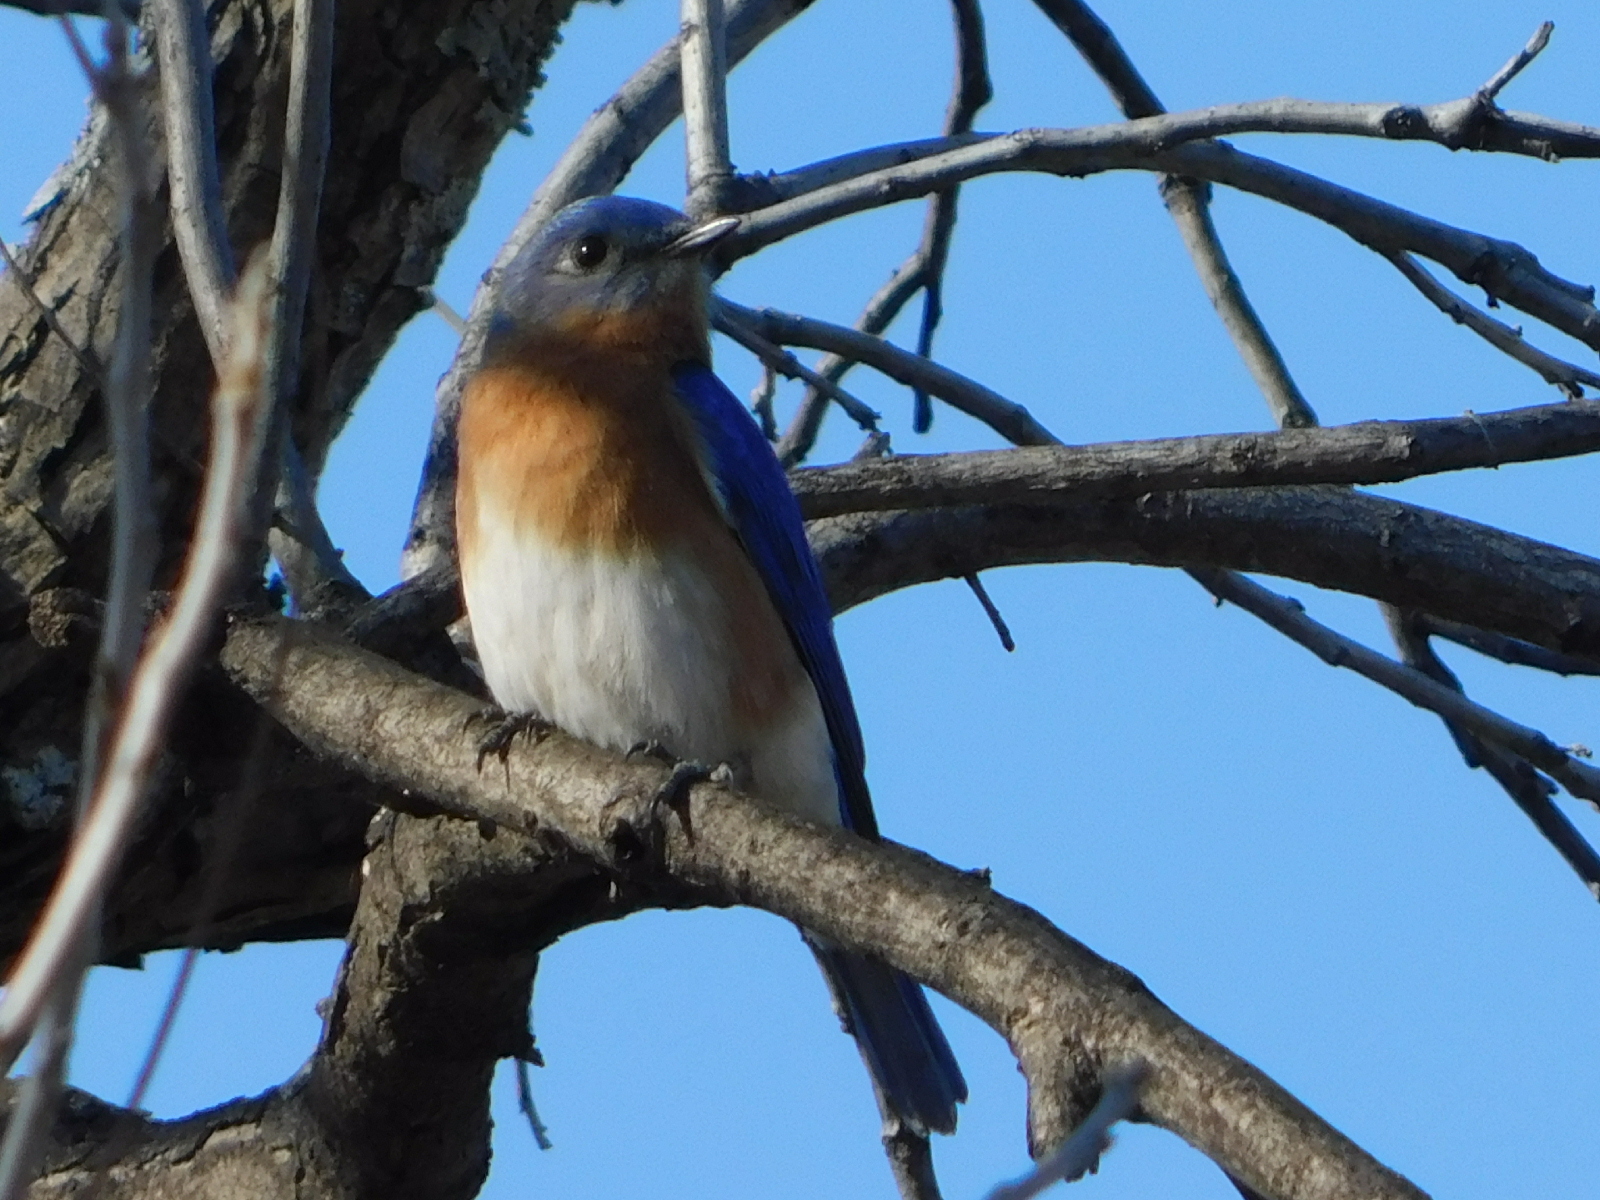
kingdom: Animalia
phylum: Chordata
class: Aves
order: Passeriformes
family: Turdidae
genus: Sialia
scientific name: Sialia sialis
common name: Eastern bluebird
